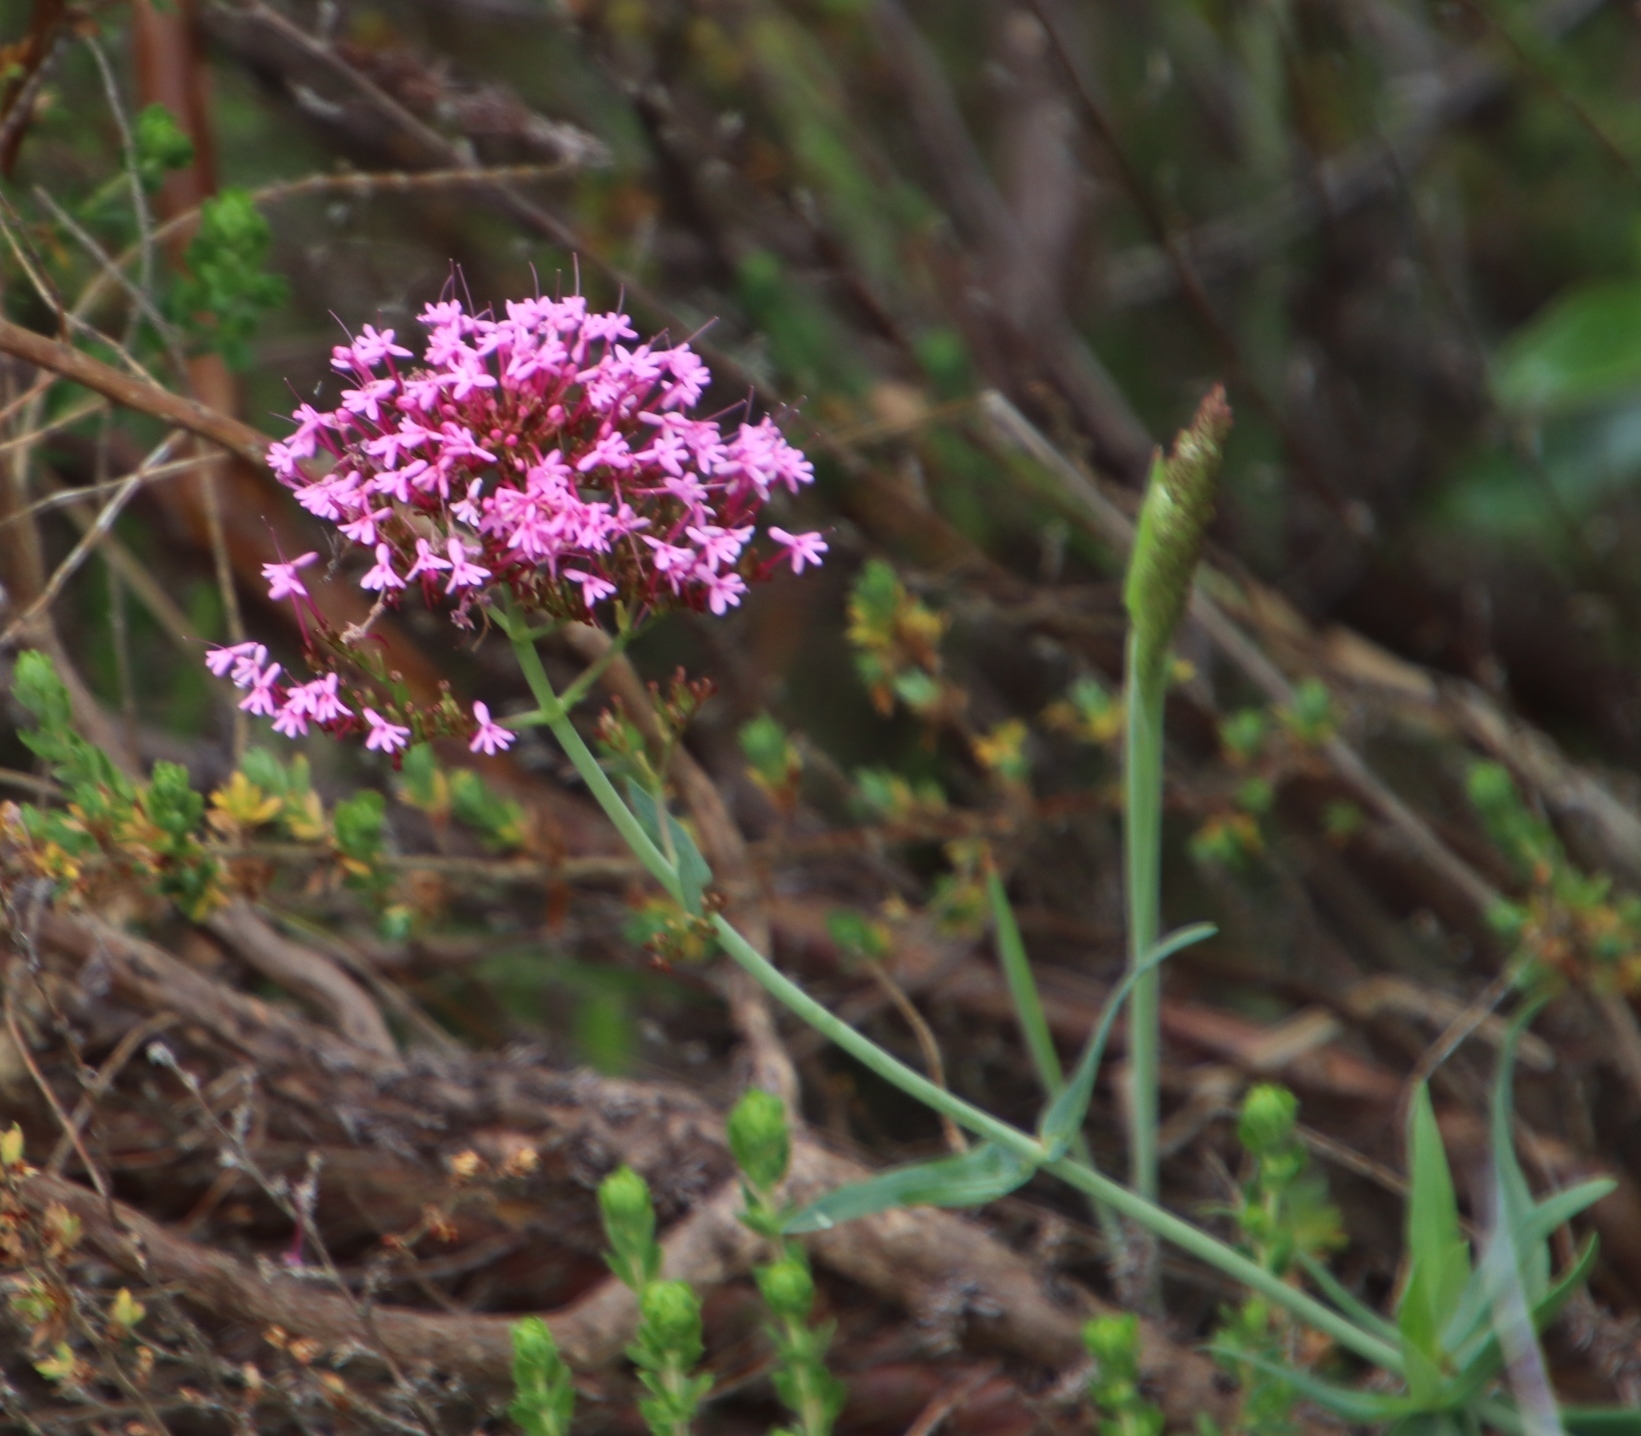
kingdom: Plantae
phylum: Tracheophyta
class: Magnoliopsida
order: Dipsacales
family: Caprifoliaceae
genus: Centranthus
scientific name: Centranthus ruber
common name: Red valerian
